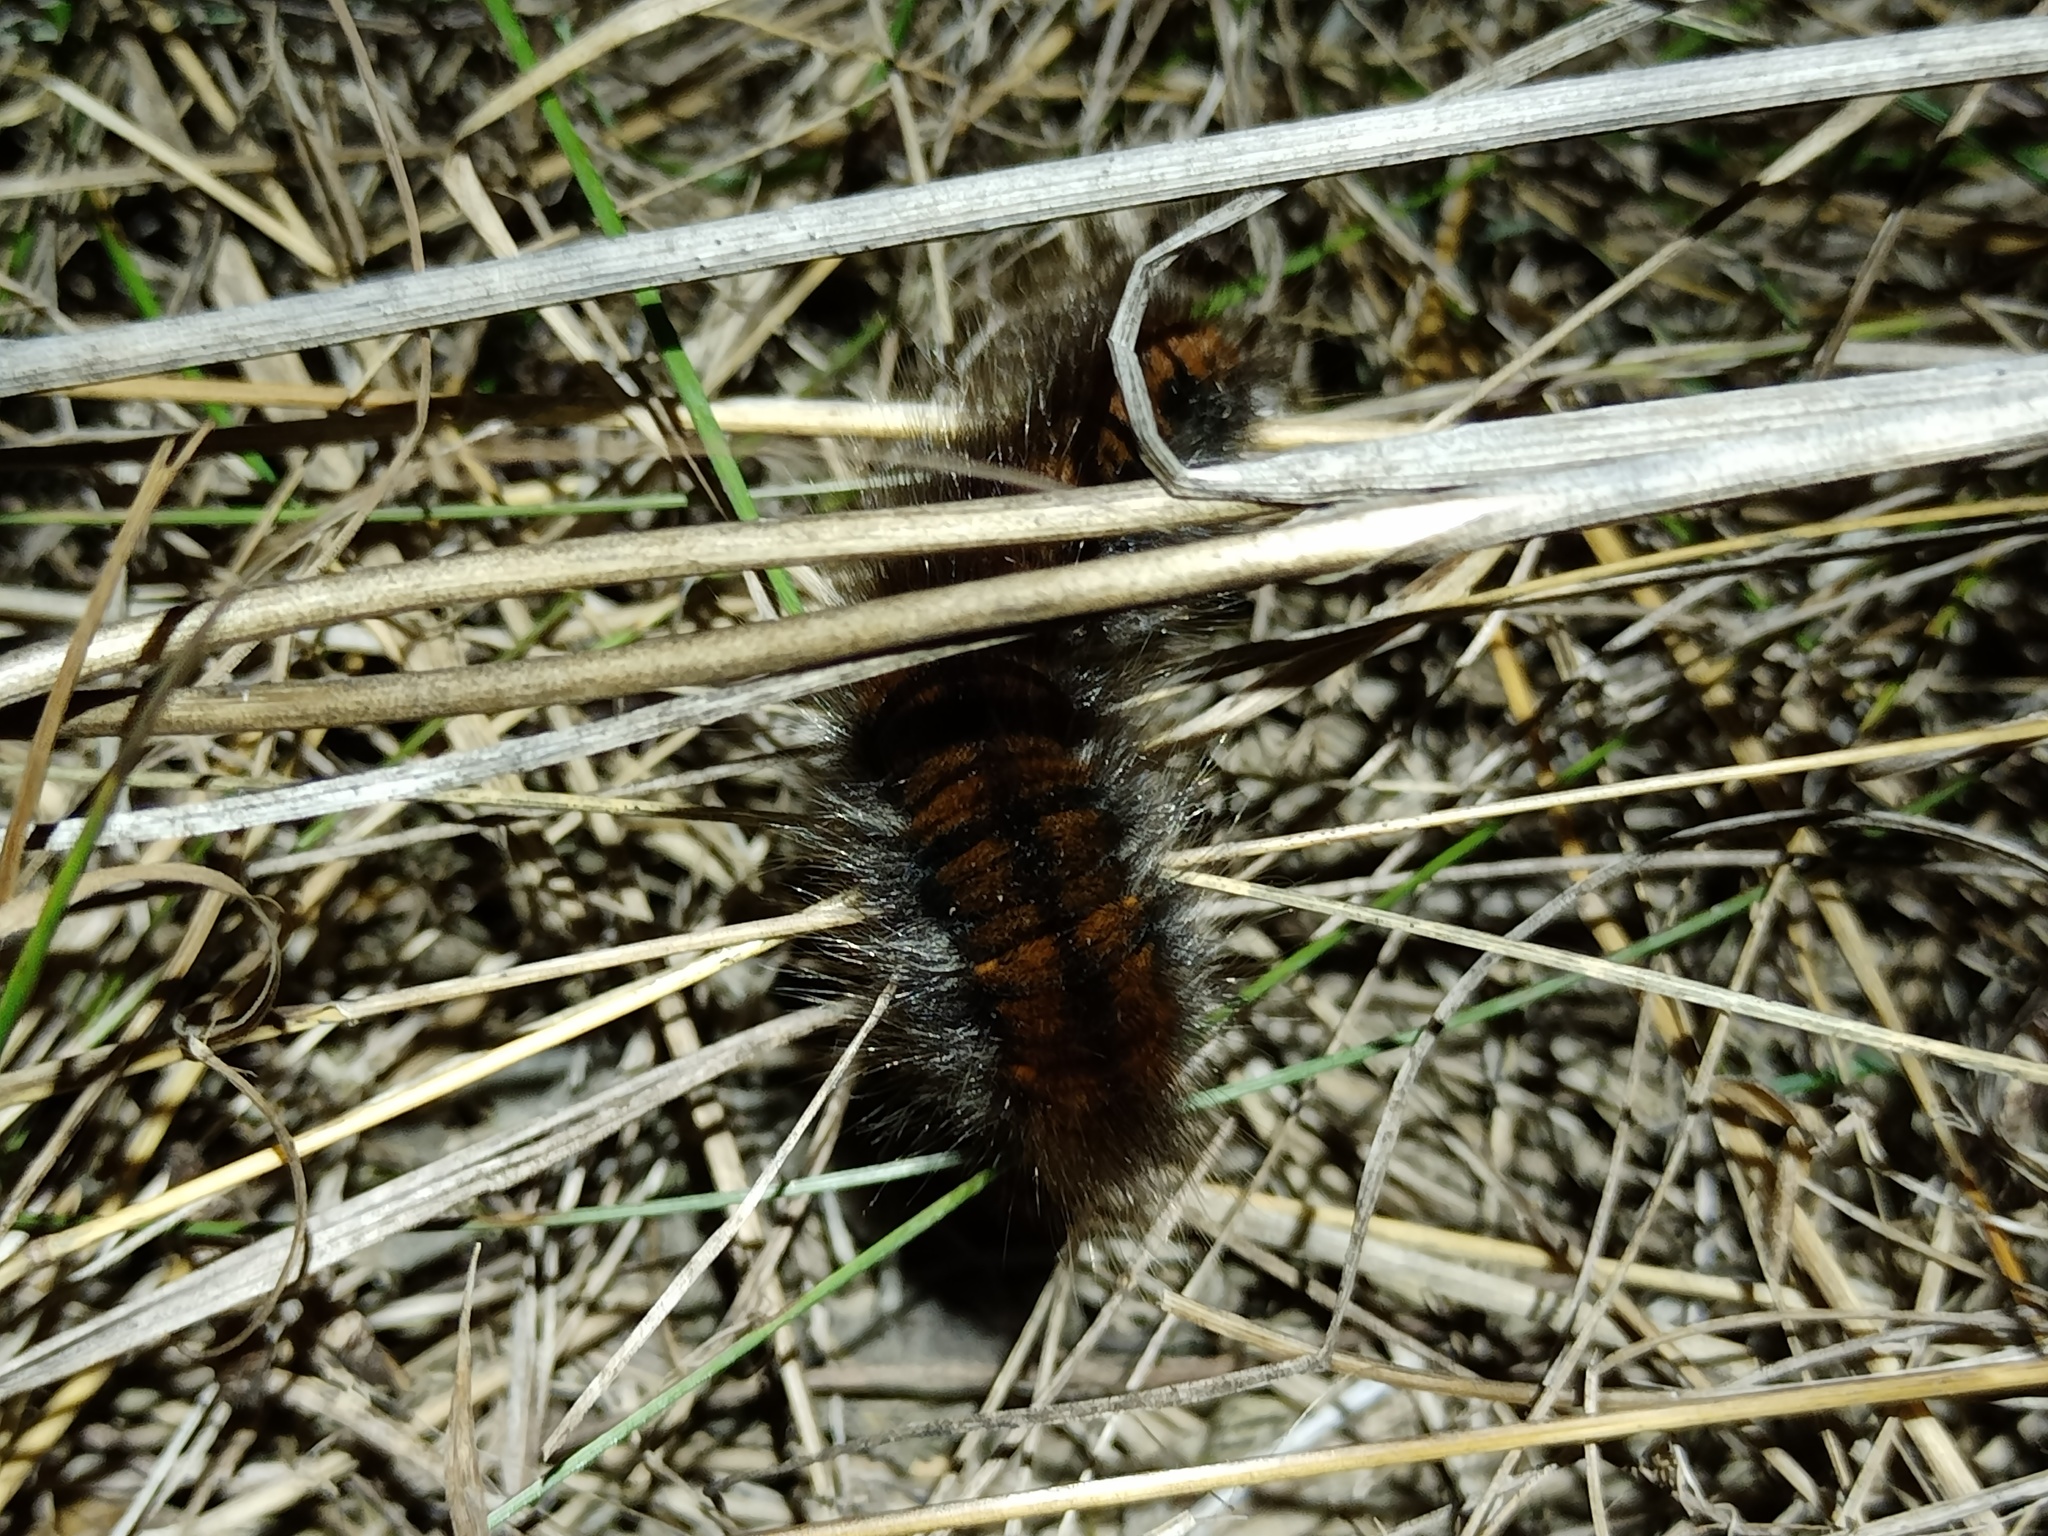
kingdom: Animalia
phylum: Arthropoda
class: Insecta
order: Lepidoptera
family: Lasiocampidae
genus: Macrothylacia
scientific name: Macrothylacia rubi
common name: Fox moth
